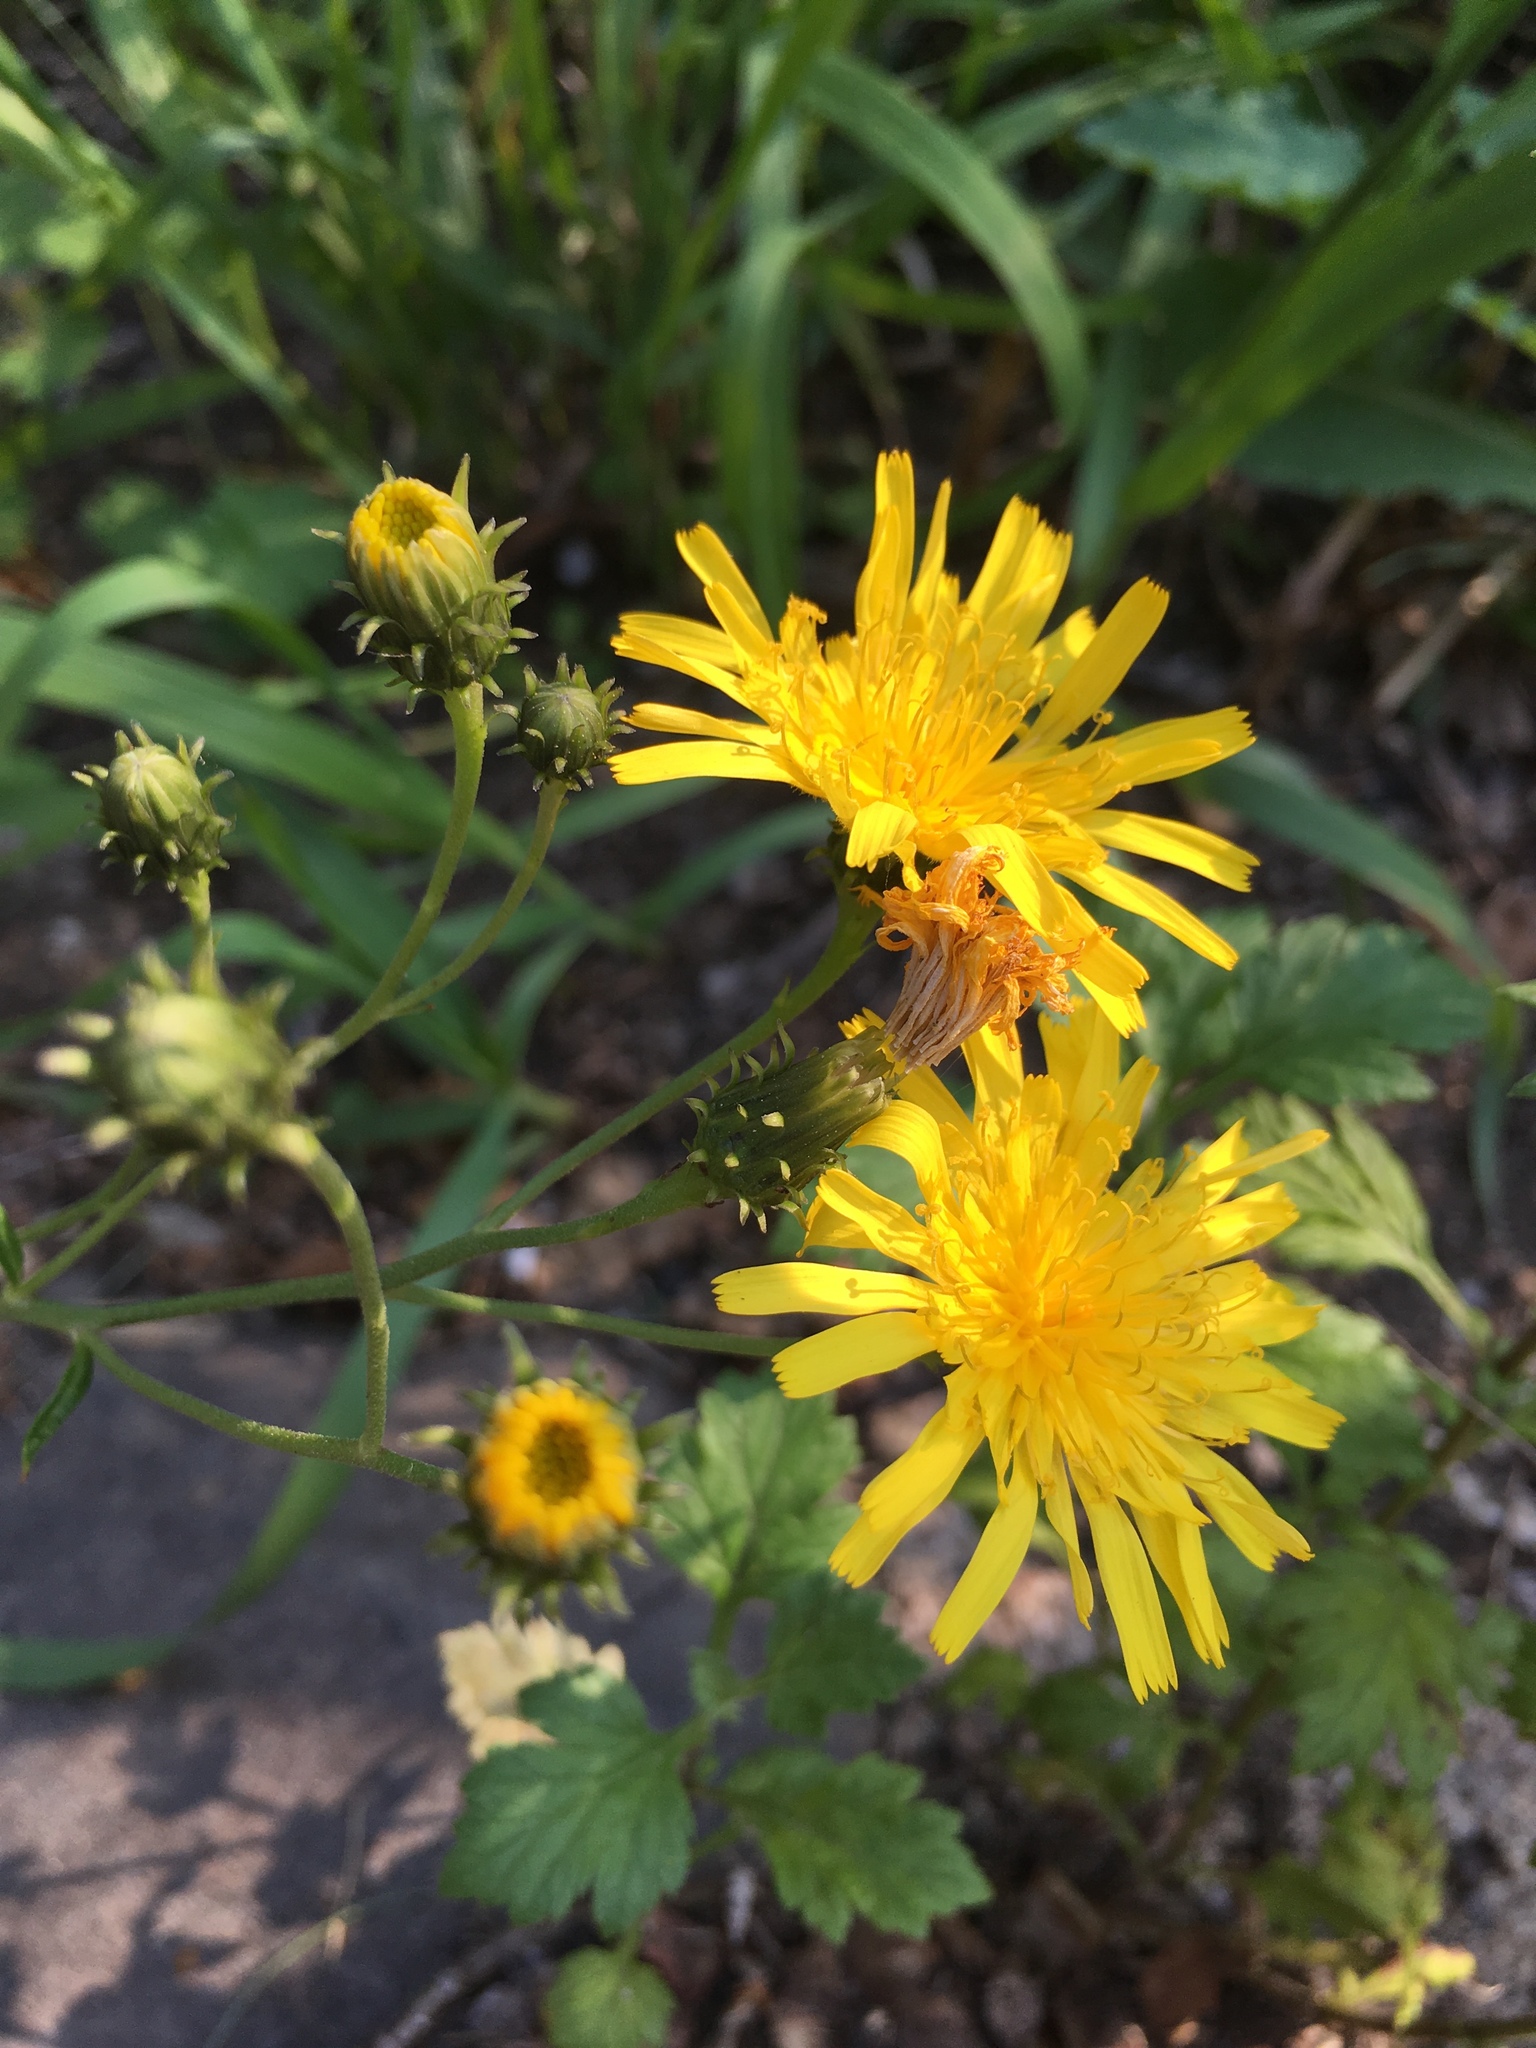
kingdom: Plantae
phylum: Tracheophyta
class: Magnoliopsida
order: Asterales
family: Asteraceae
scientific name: Asteraceae
